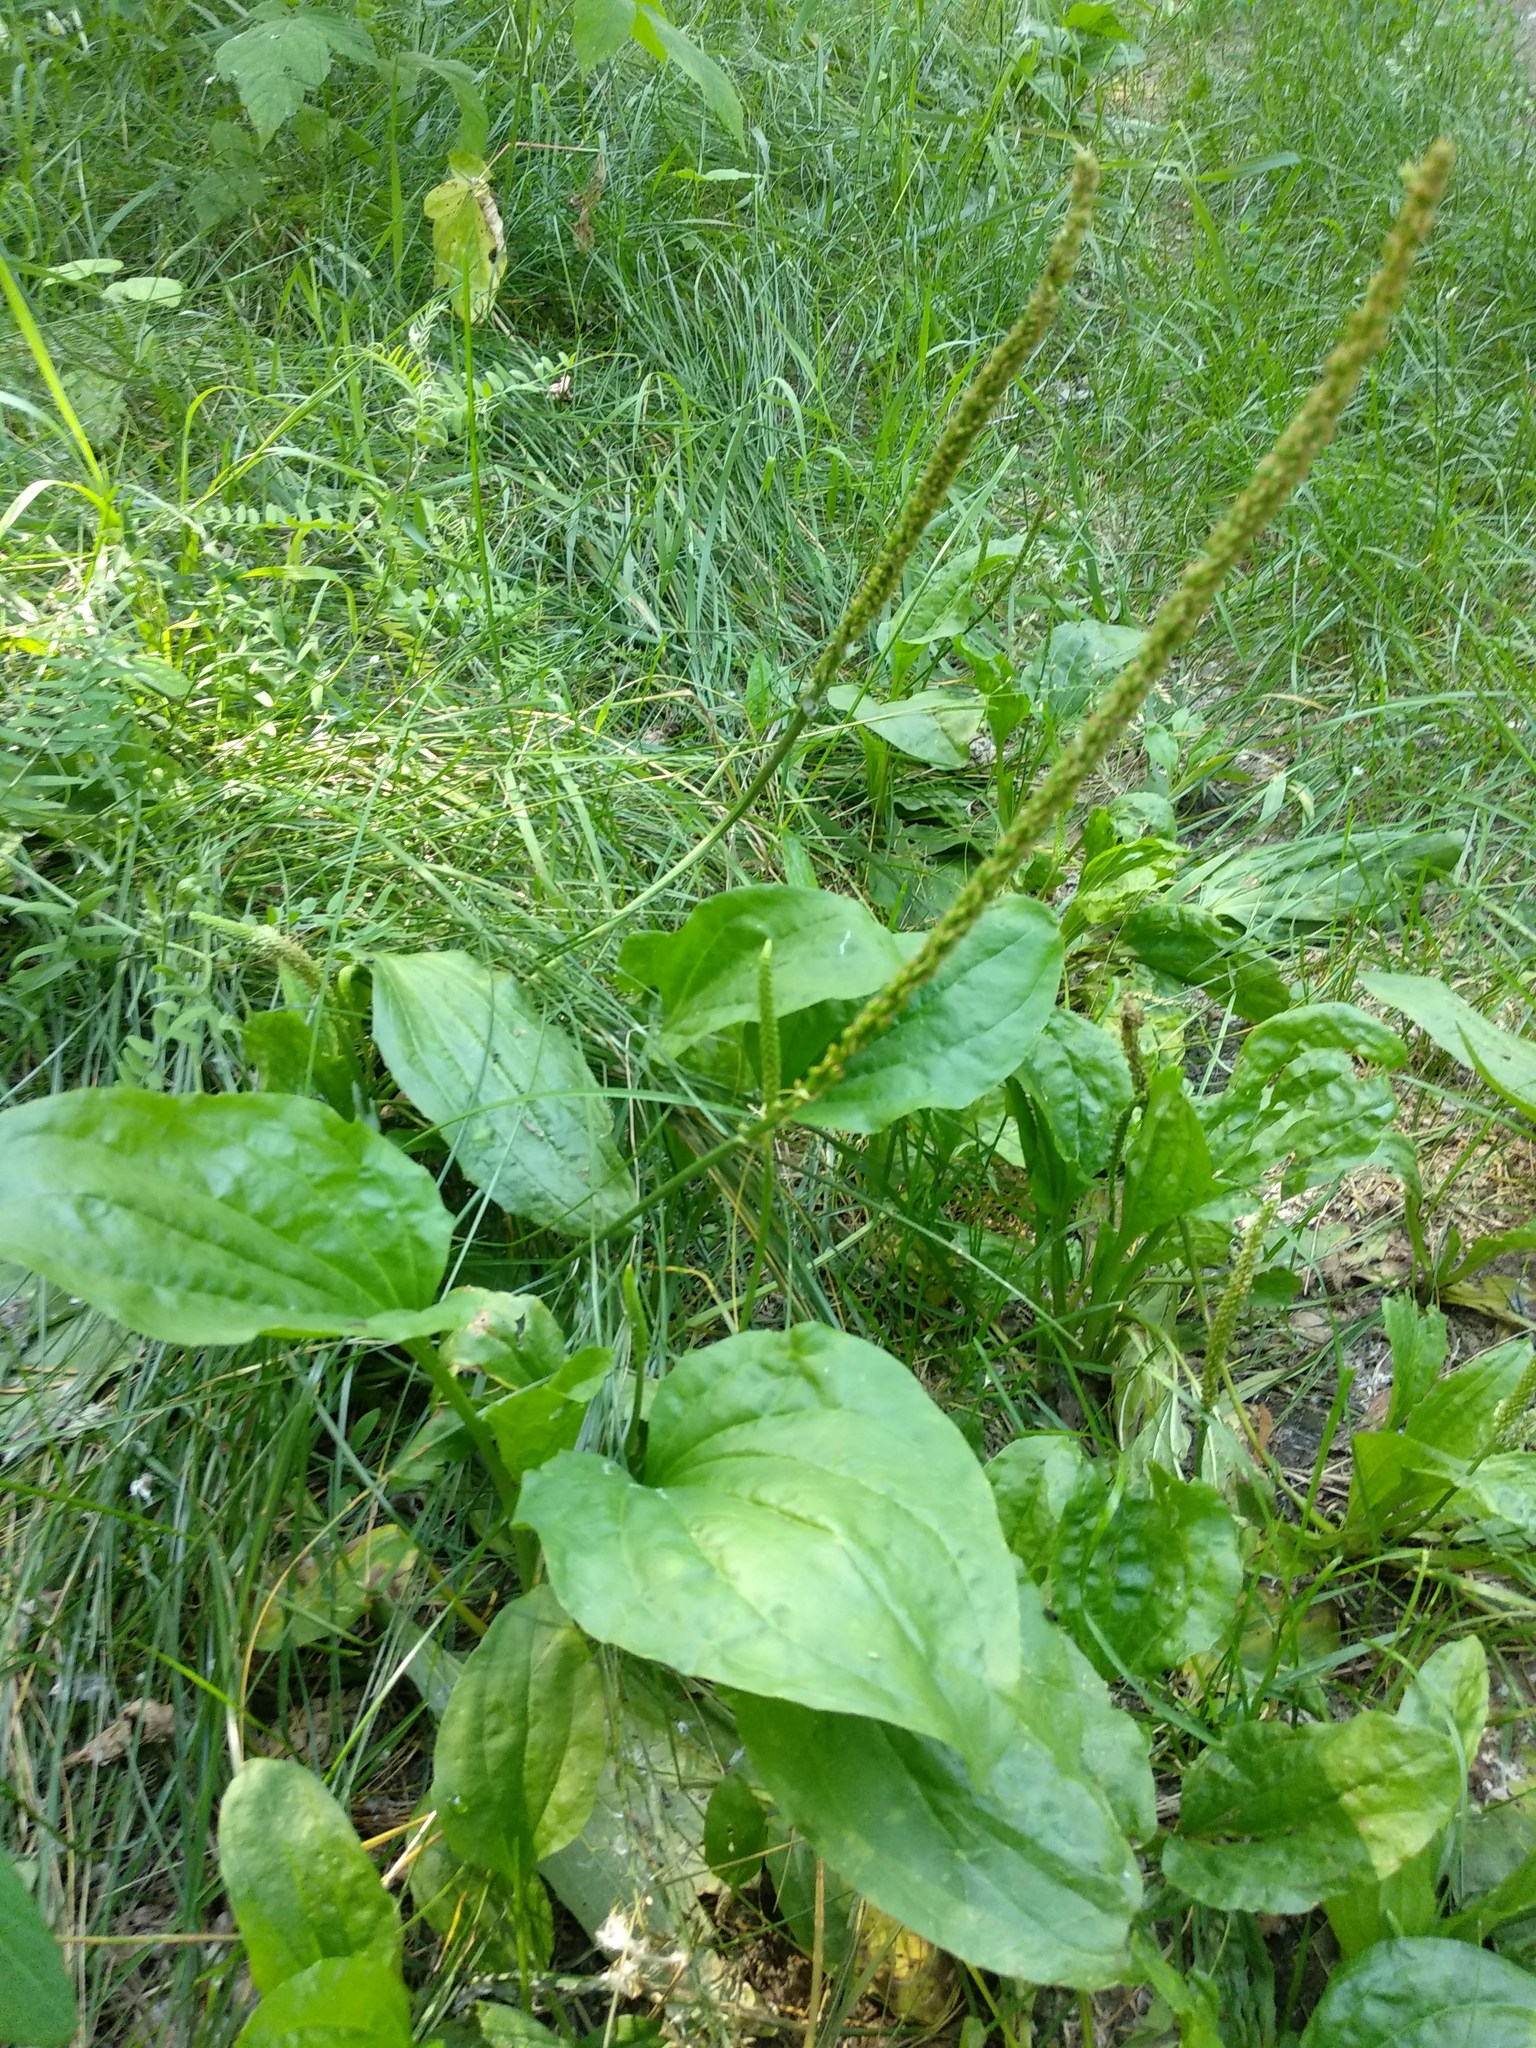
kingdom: Plantae
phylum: Tracheophyta
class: Magnoliopsida
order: Lamiales
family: Plantaginaceae
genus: Plantago
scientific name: Plantago major
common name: Common plantain
